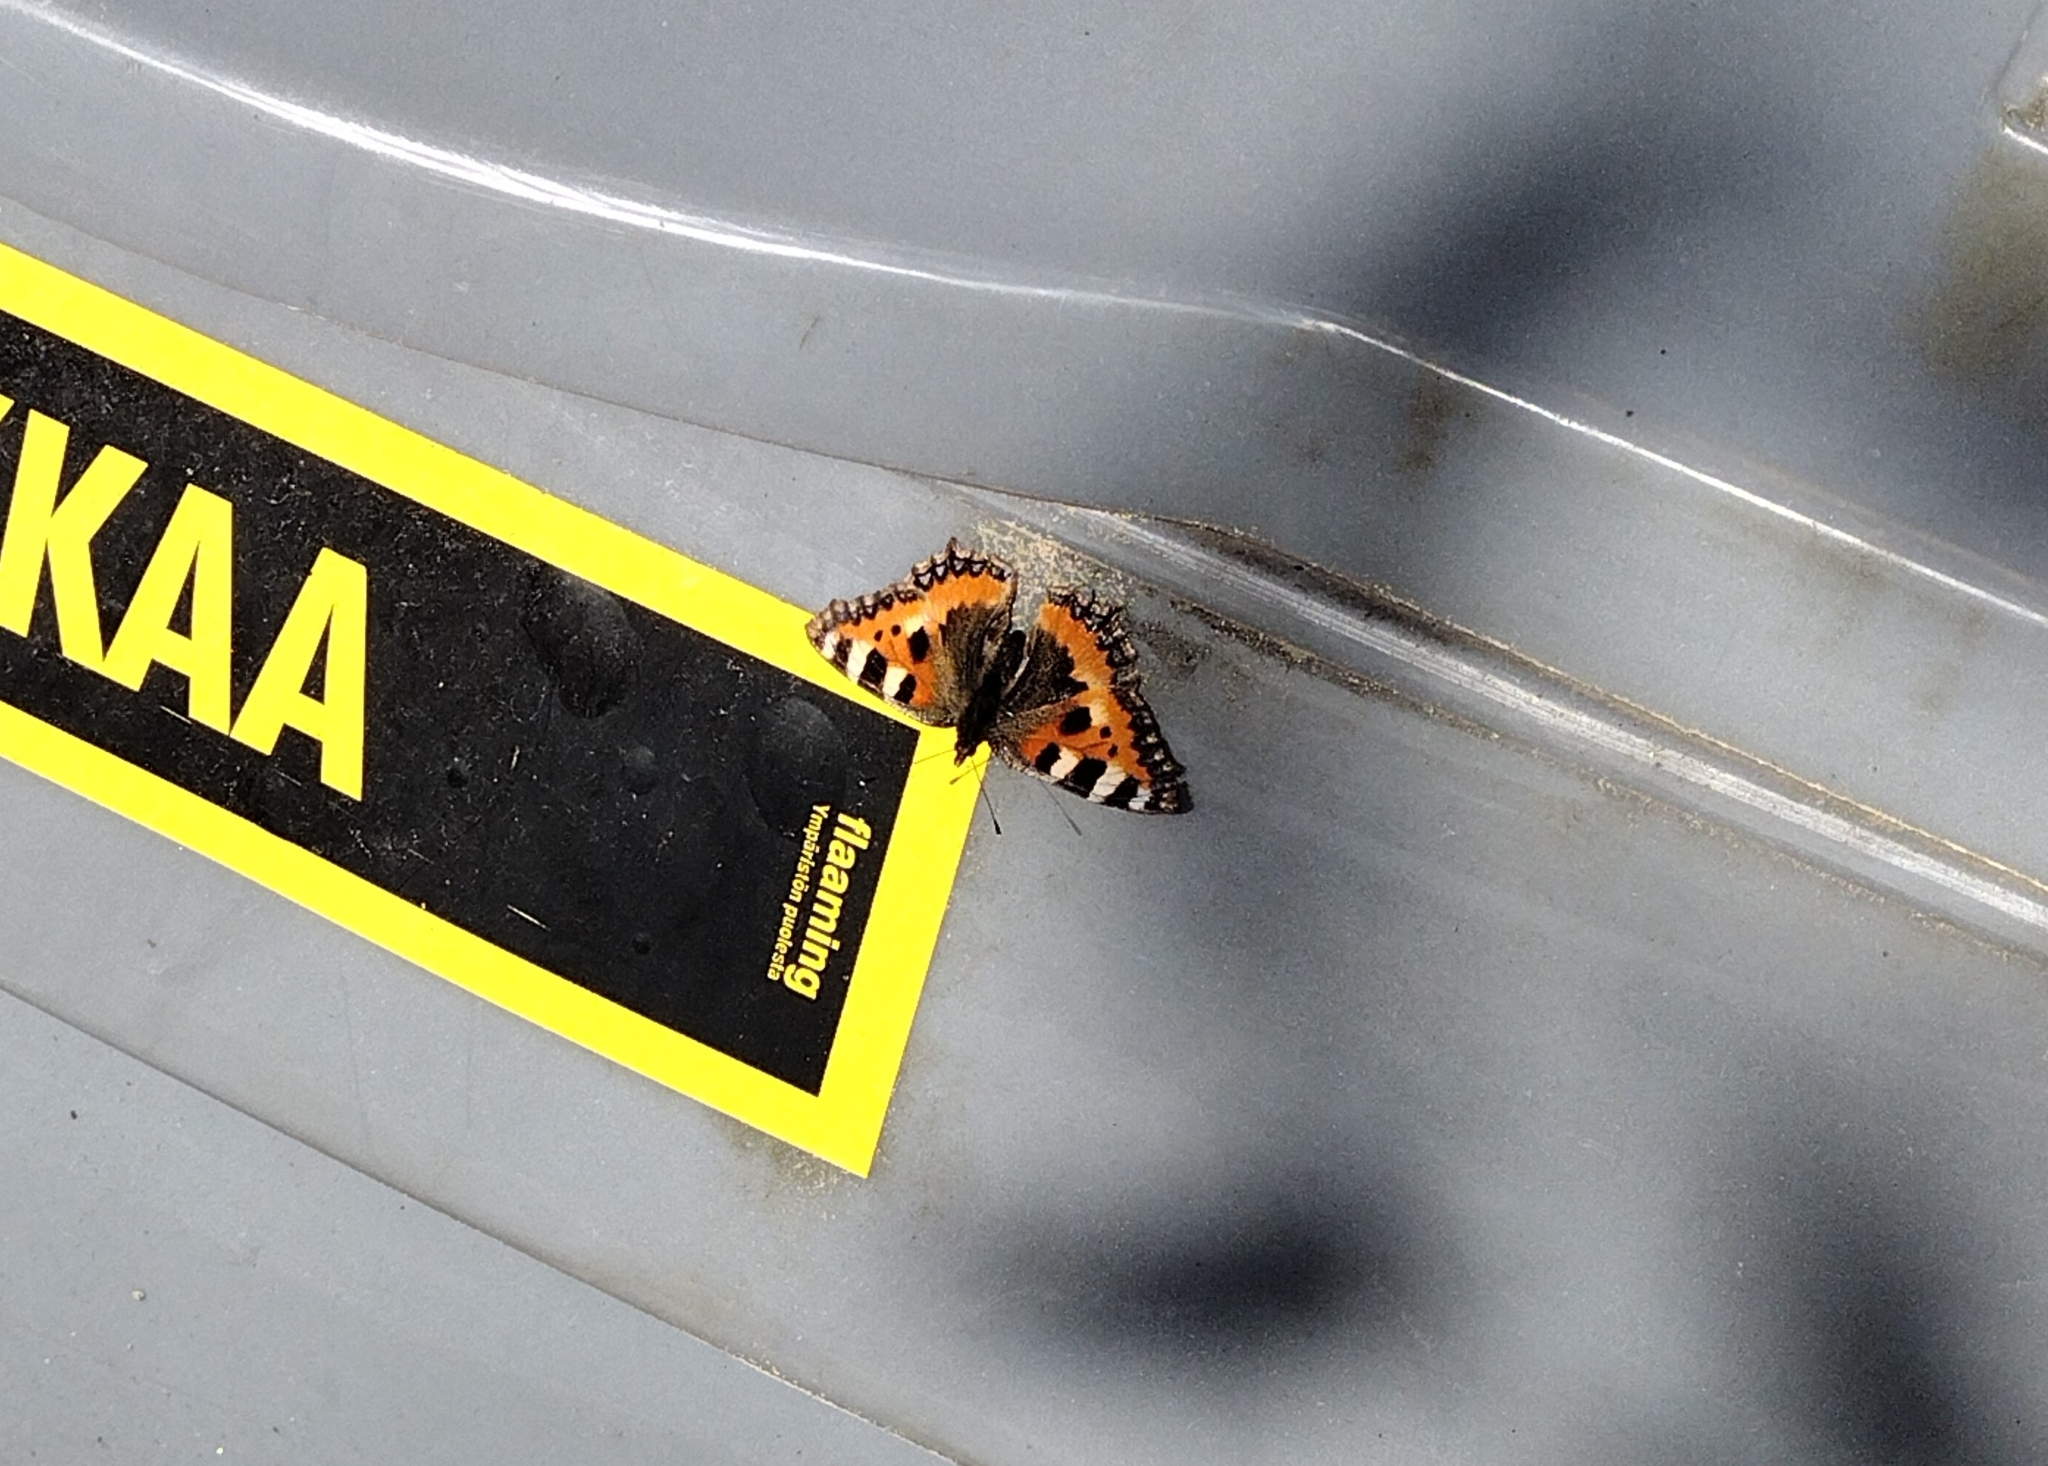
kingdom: Animalia
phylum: Arthropoda
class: Insecta
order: Lepidoptera
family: Nymphalidae
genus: Aglais
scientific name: Aglais urticae
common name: Small tortoiseshell
